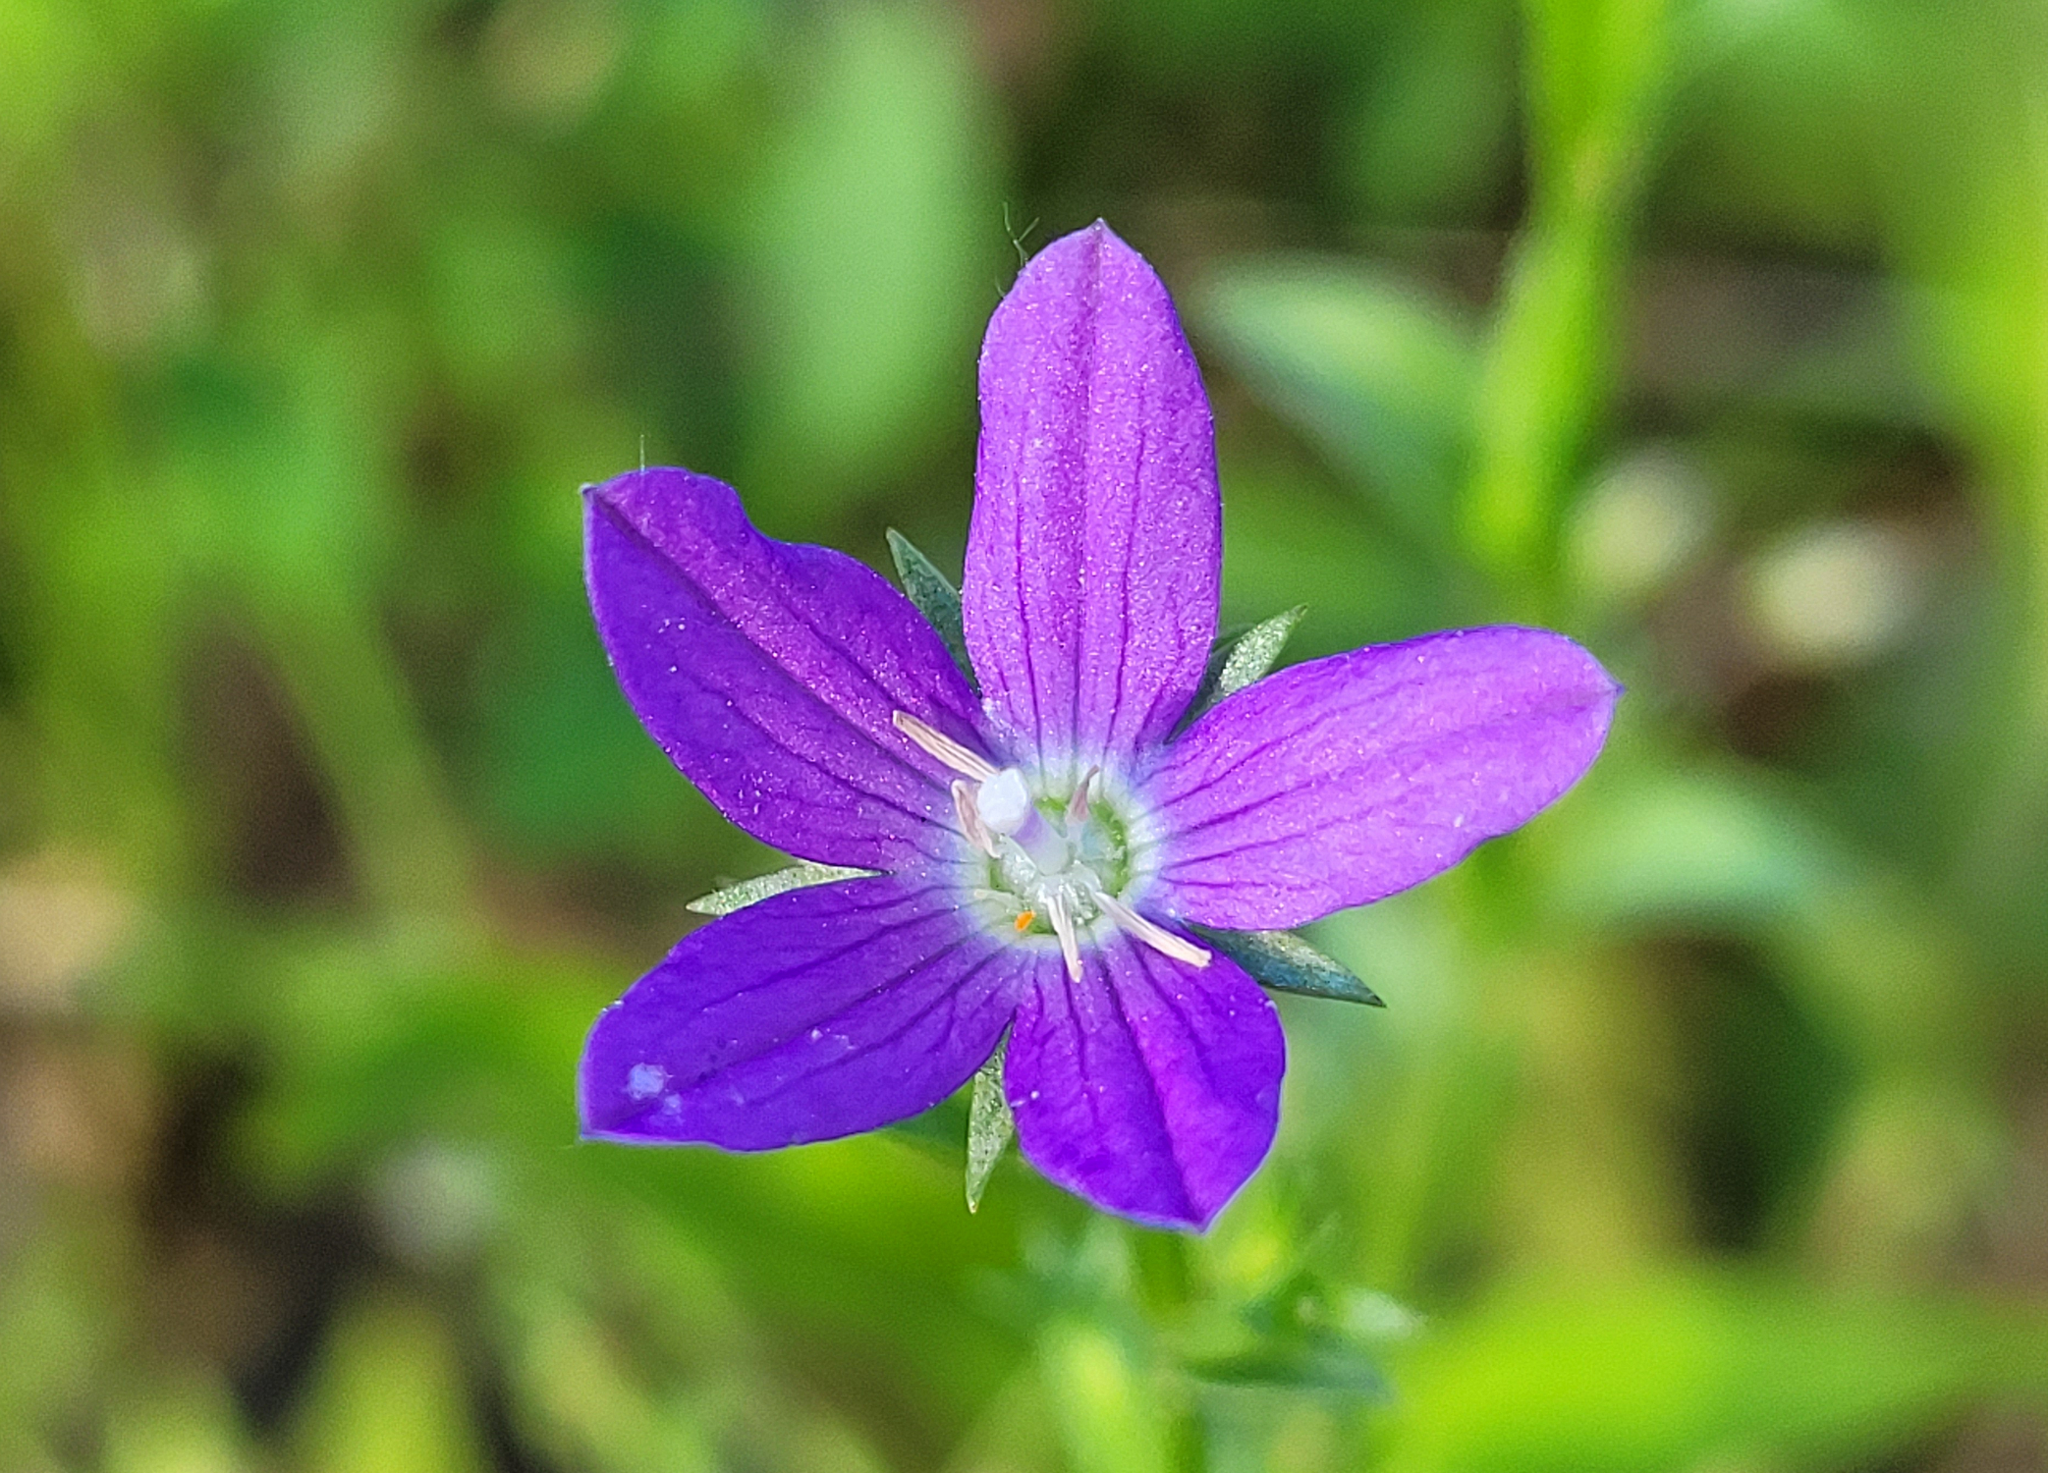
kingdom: Plantae
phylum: Tracheophyta
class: Magnoliopsida
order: Asterales
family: Campanulaceae
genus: Triodanis
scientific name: Triodanis biflora
